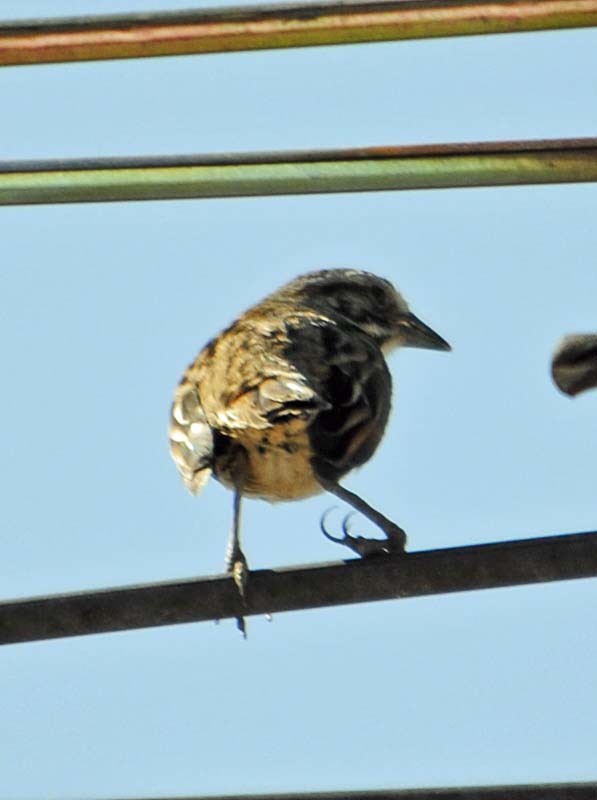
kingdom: Animalia
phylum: Chordata
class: Aves
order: Passeriformes
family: Passerellidae
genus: Melospiza
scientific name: Melospiza melodia
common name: Song sparrow
